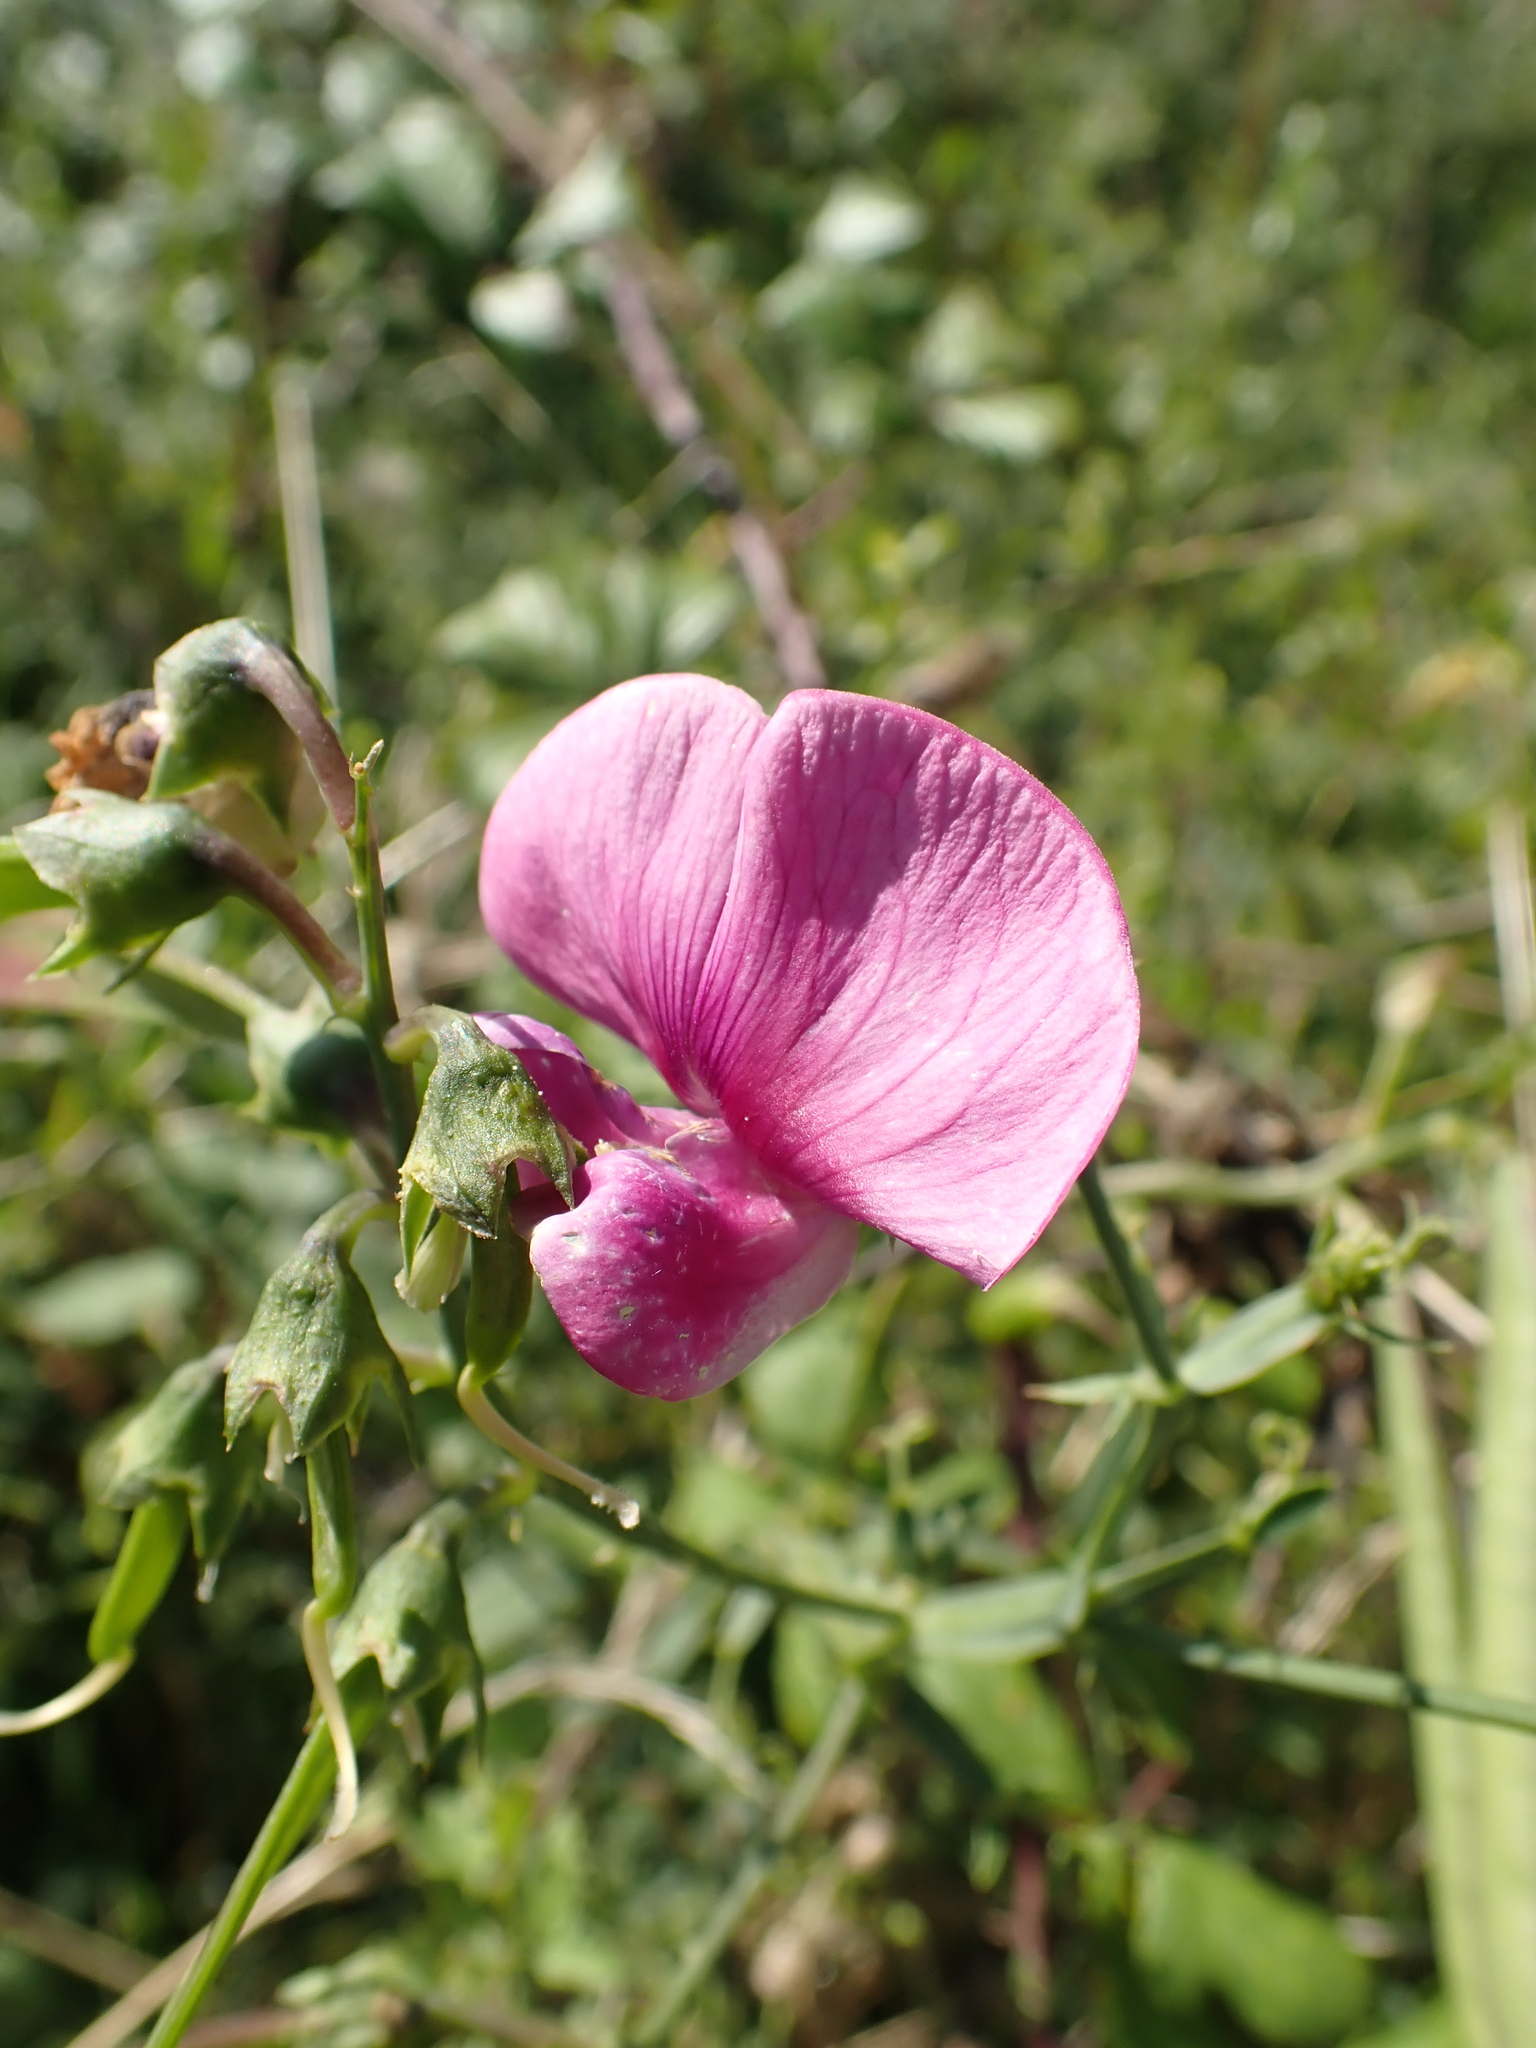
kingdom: Plantae
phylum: Tracheophyta
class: Magnoliopsida
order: Fabales
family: Fabaceae
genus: Lathyrus
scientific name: Lathyrus latifolius
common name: Perennial pea
